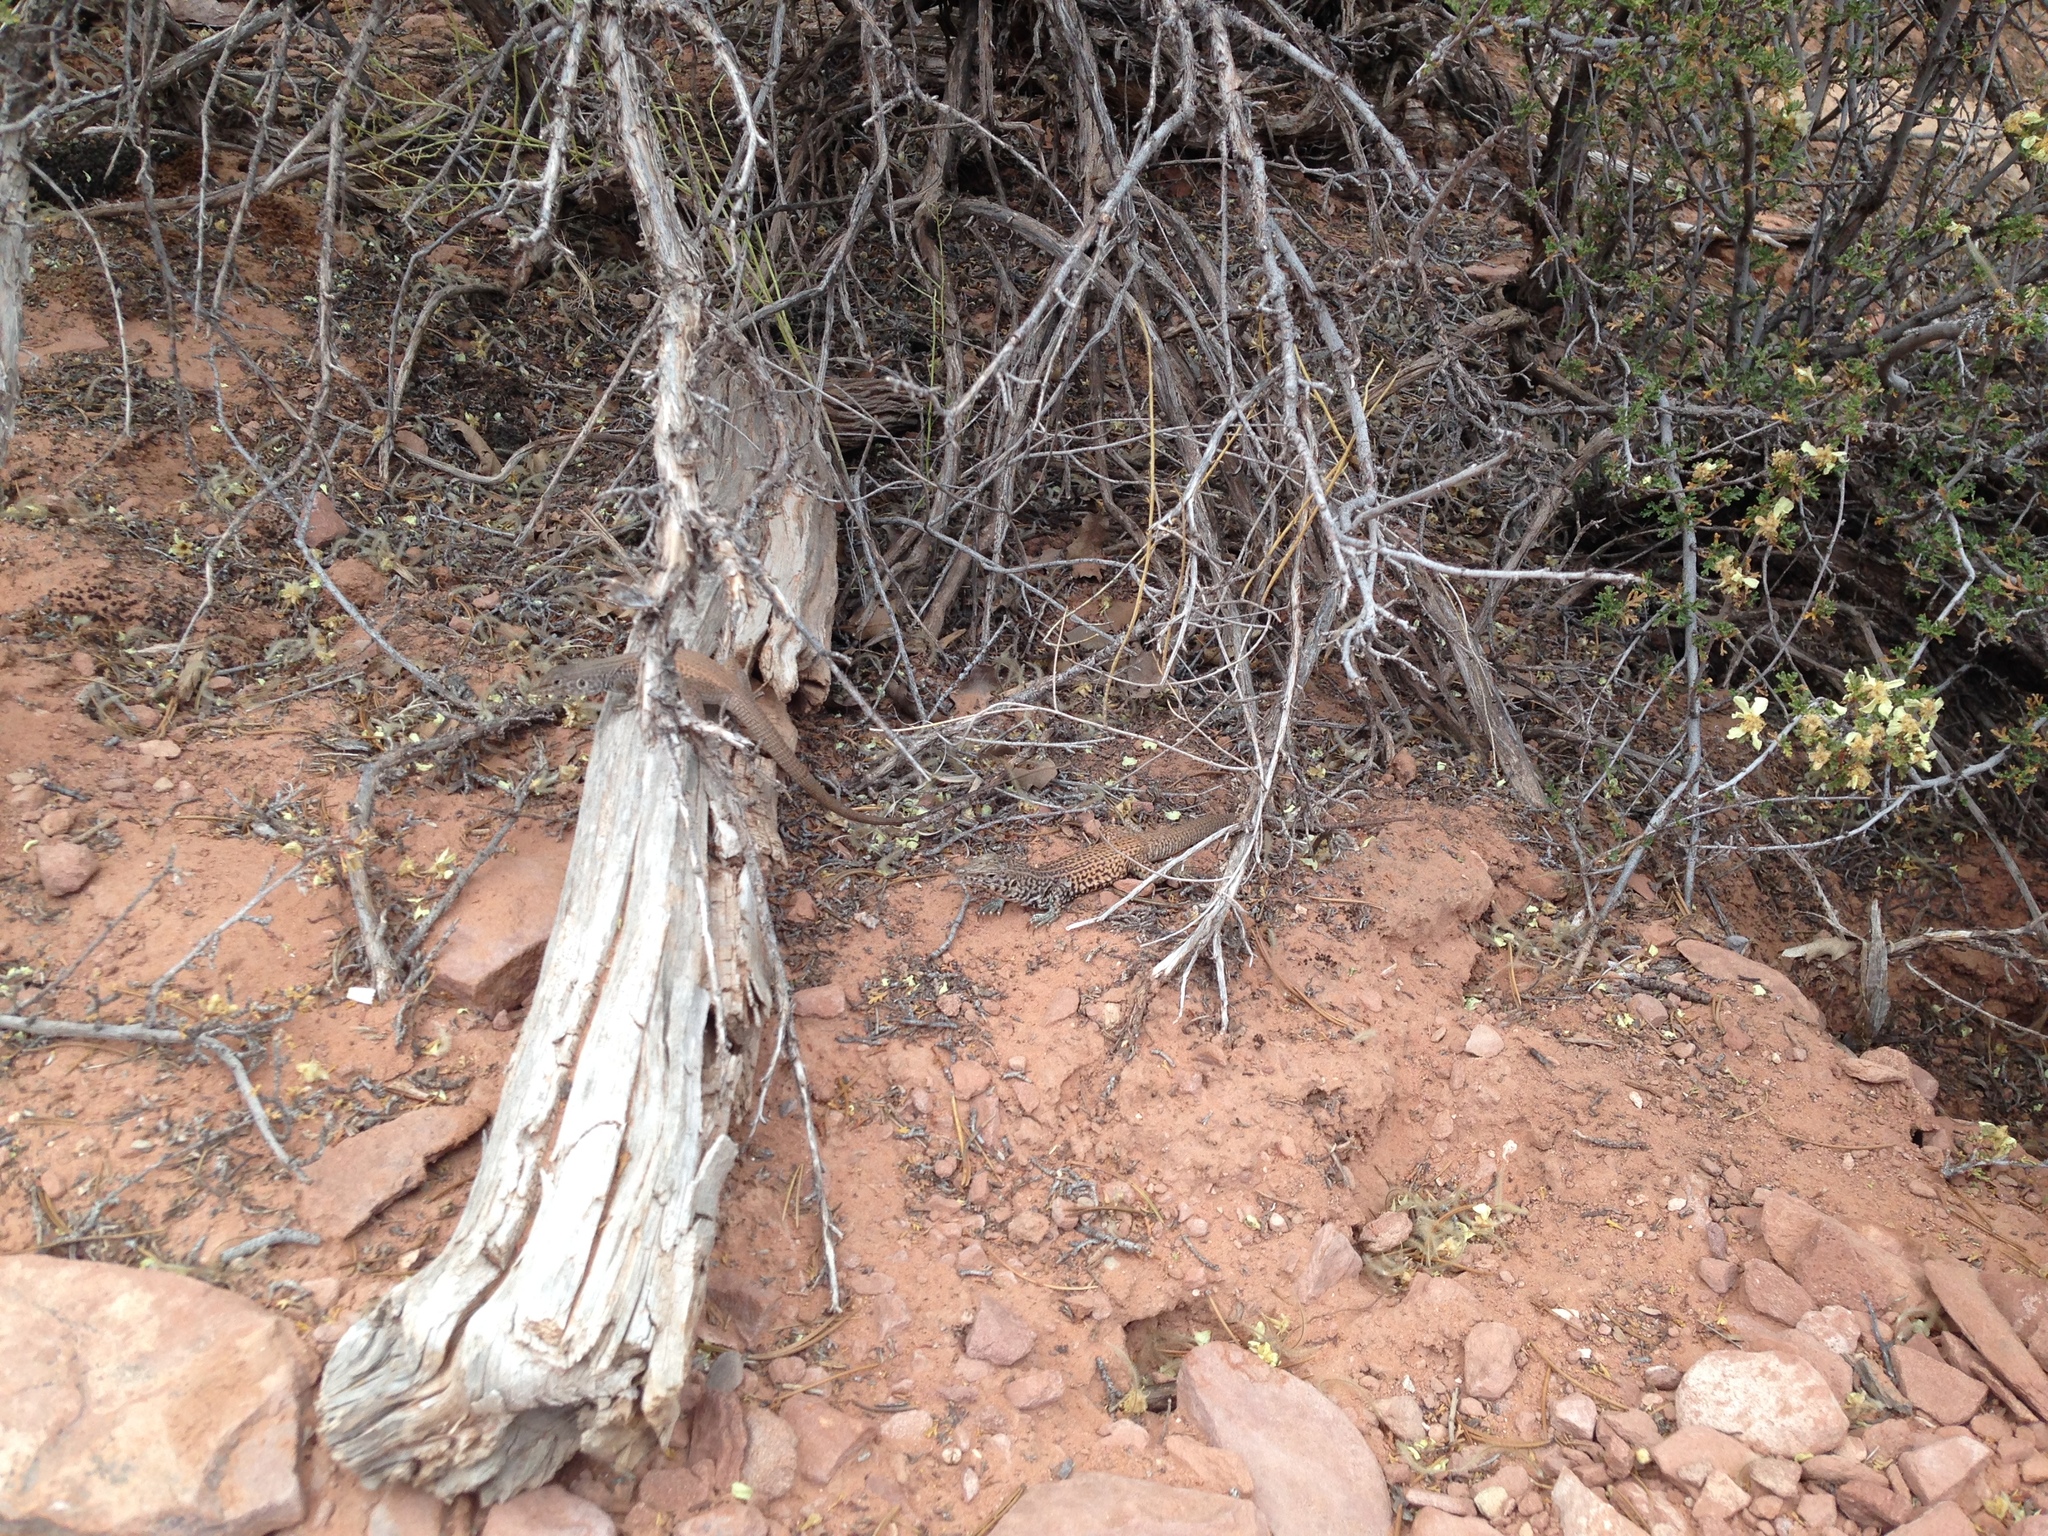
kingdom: Animalia
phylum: Chordata
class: Squamata
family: Teiidae
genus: Aspidoscelis
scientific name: Aspidoscelis tigris
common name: Tiger whiptail
